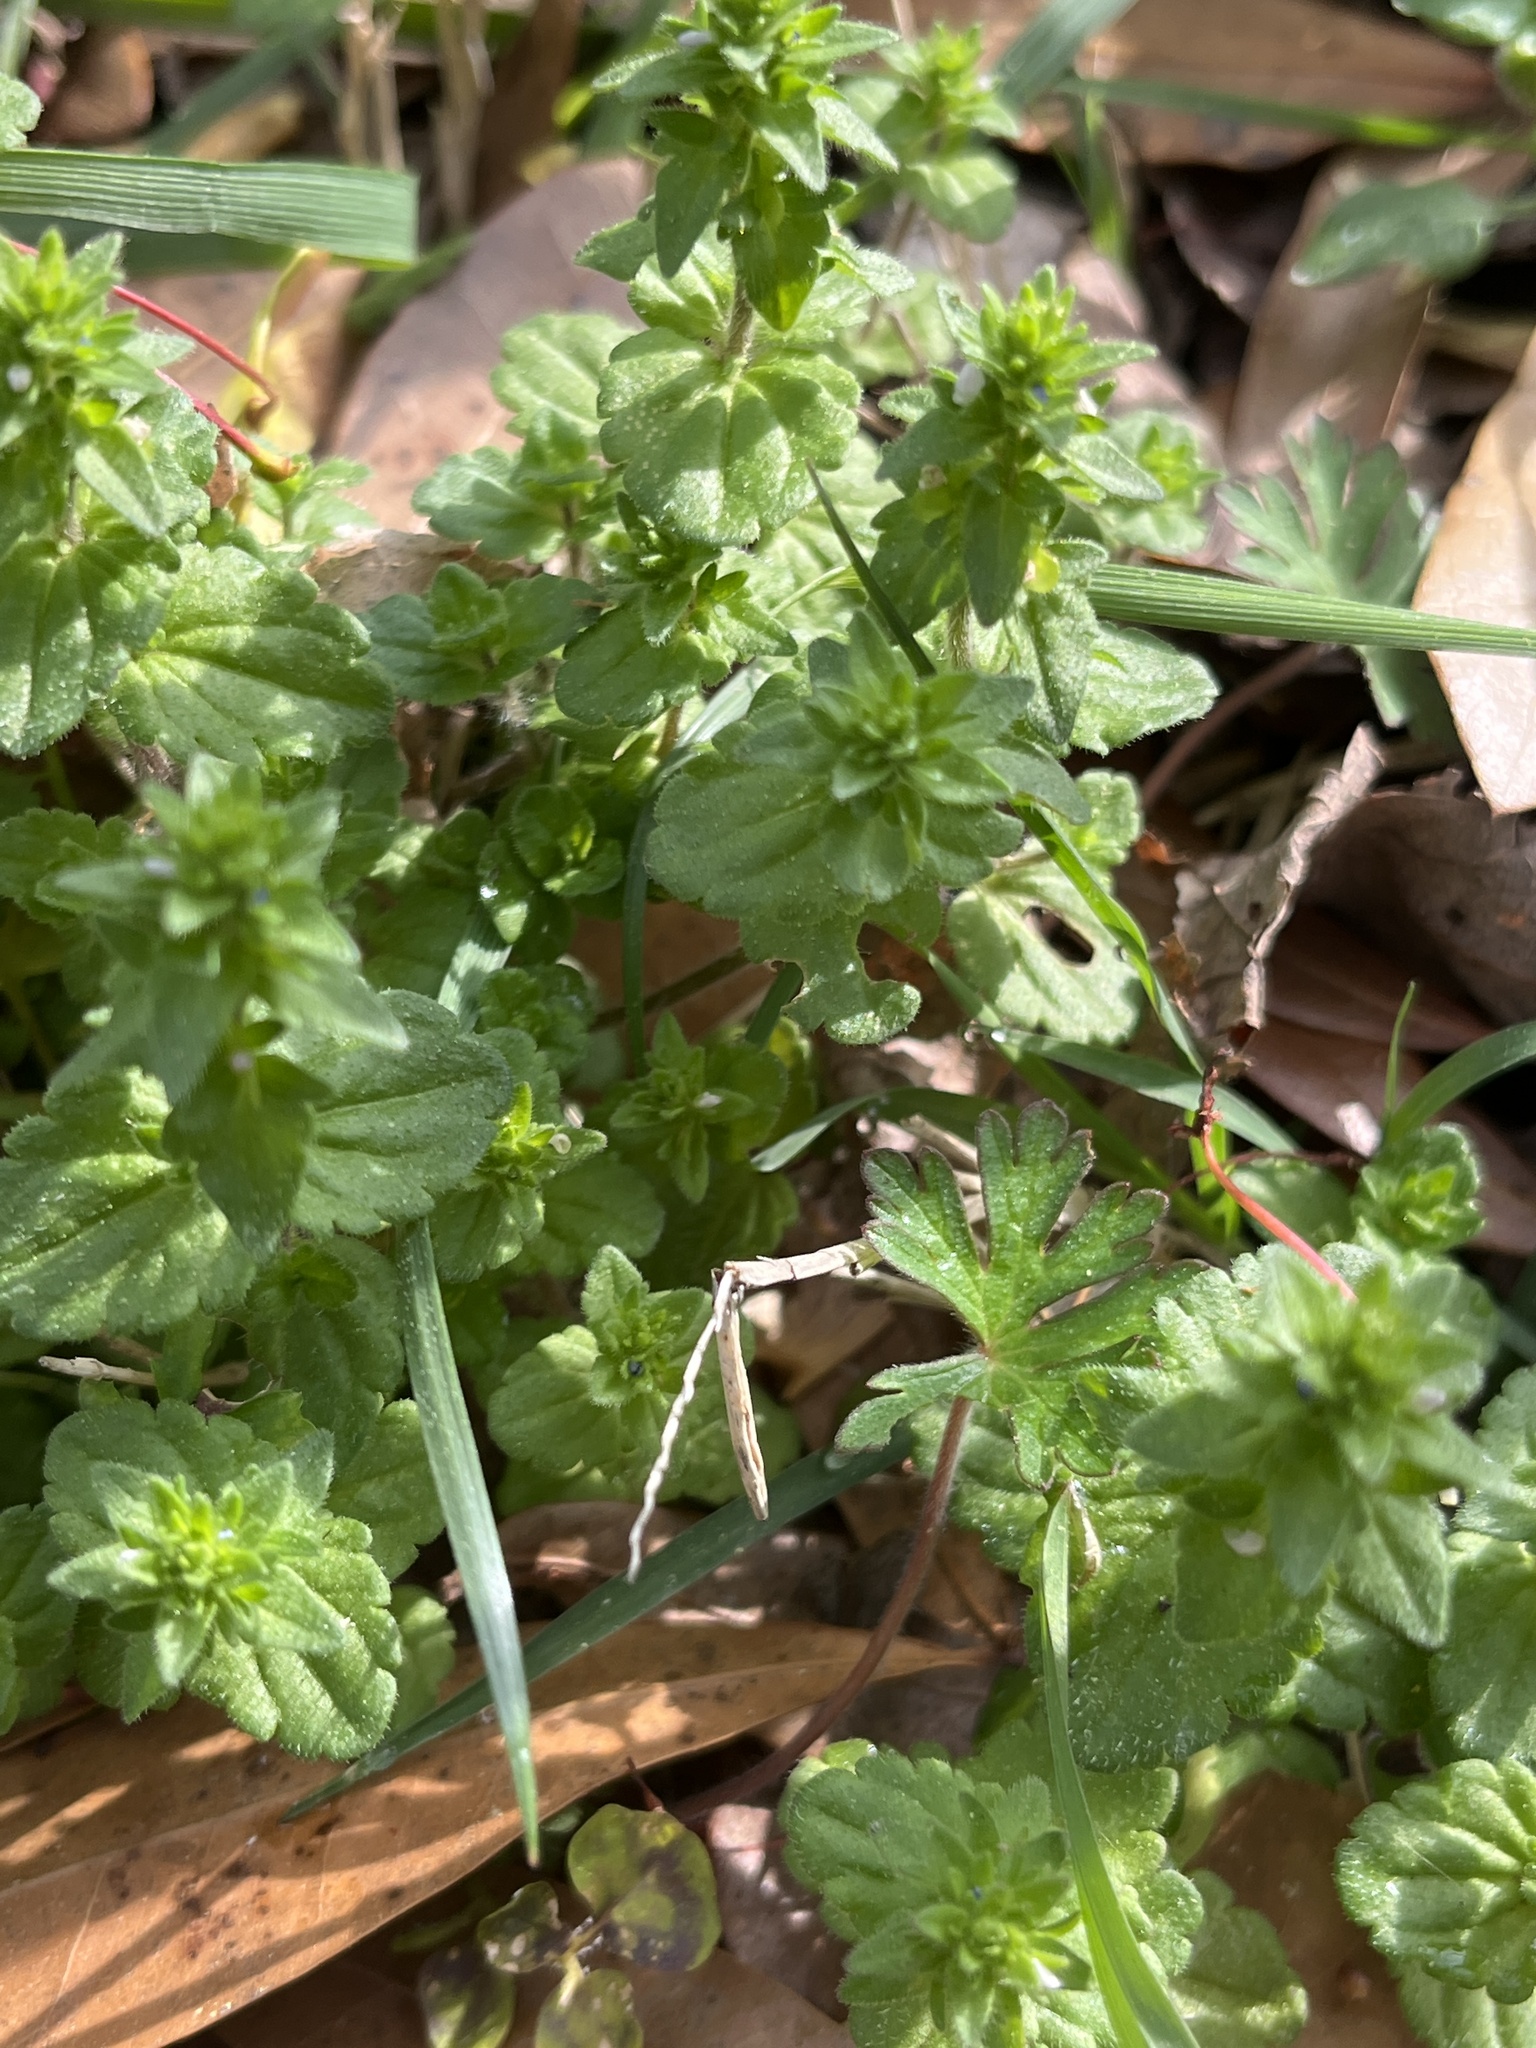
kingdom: Plantae
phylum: Tracheophyta
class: Magnoliopsida
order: Gentianales
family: Rubiaceae
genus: Sherardia
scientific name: Sherardia arvensis
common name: Field madder
